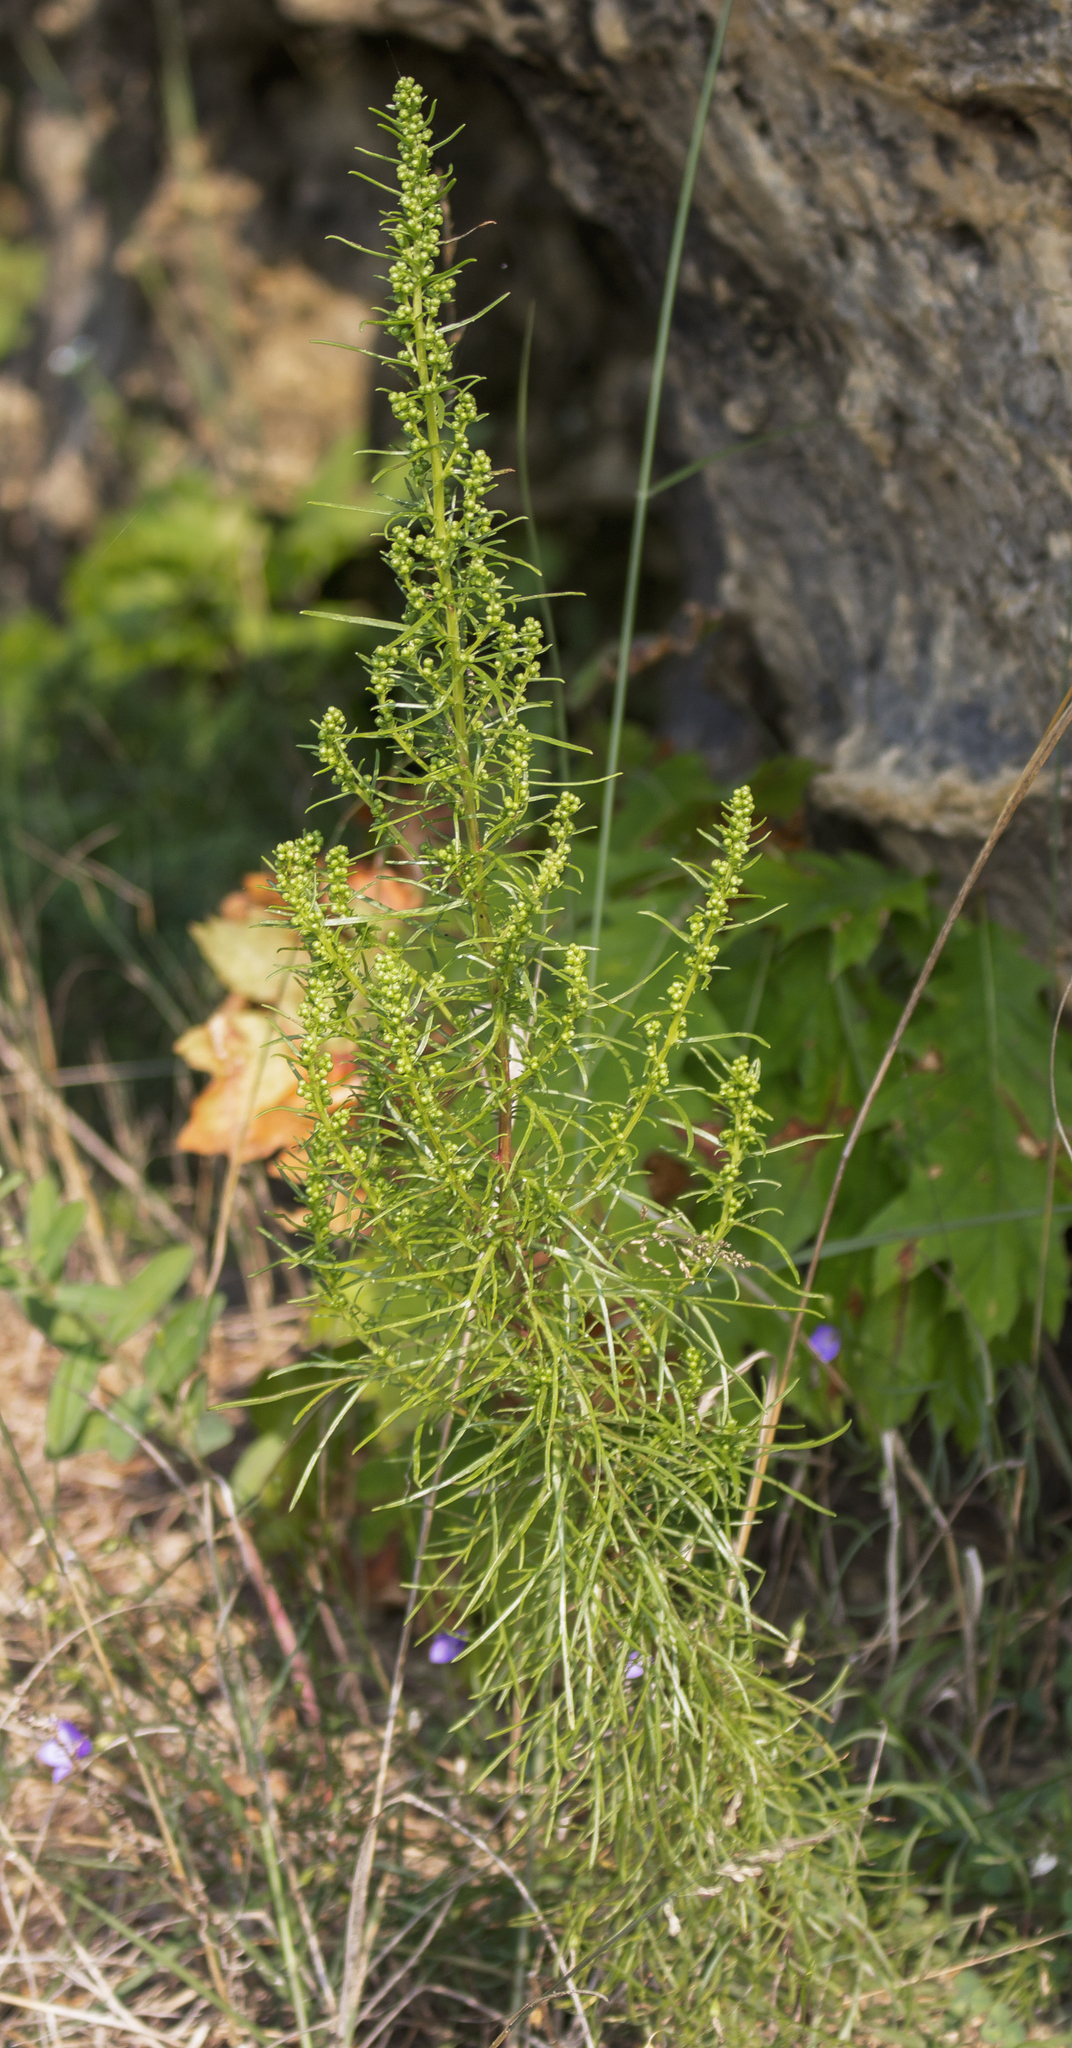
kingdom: Plantae
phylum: Tracheophyta
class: Magnoliopsida
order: Asterales
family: Asteraceae
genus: Artemisia
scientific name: Artemisia campestris
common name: Field wormwood
